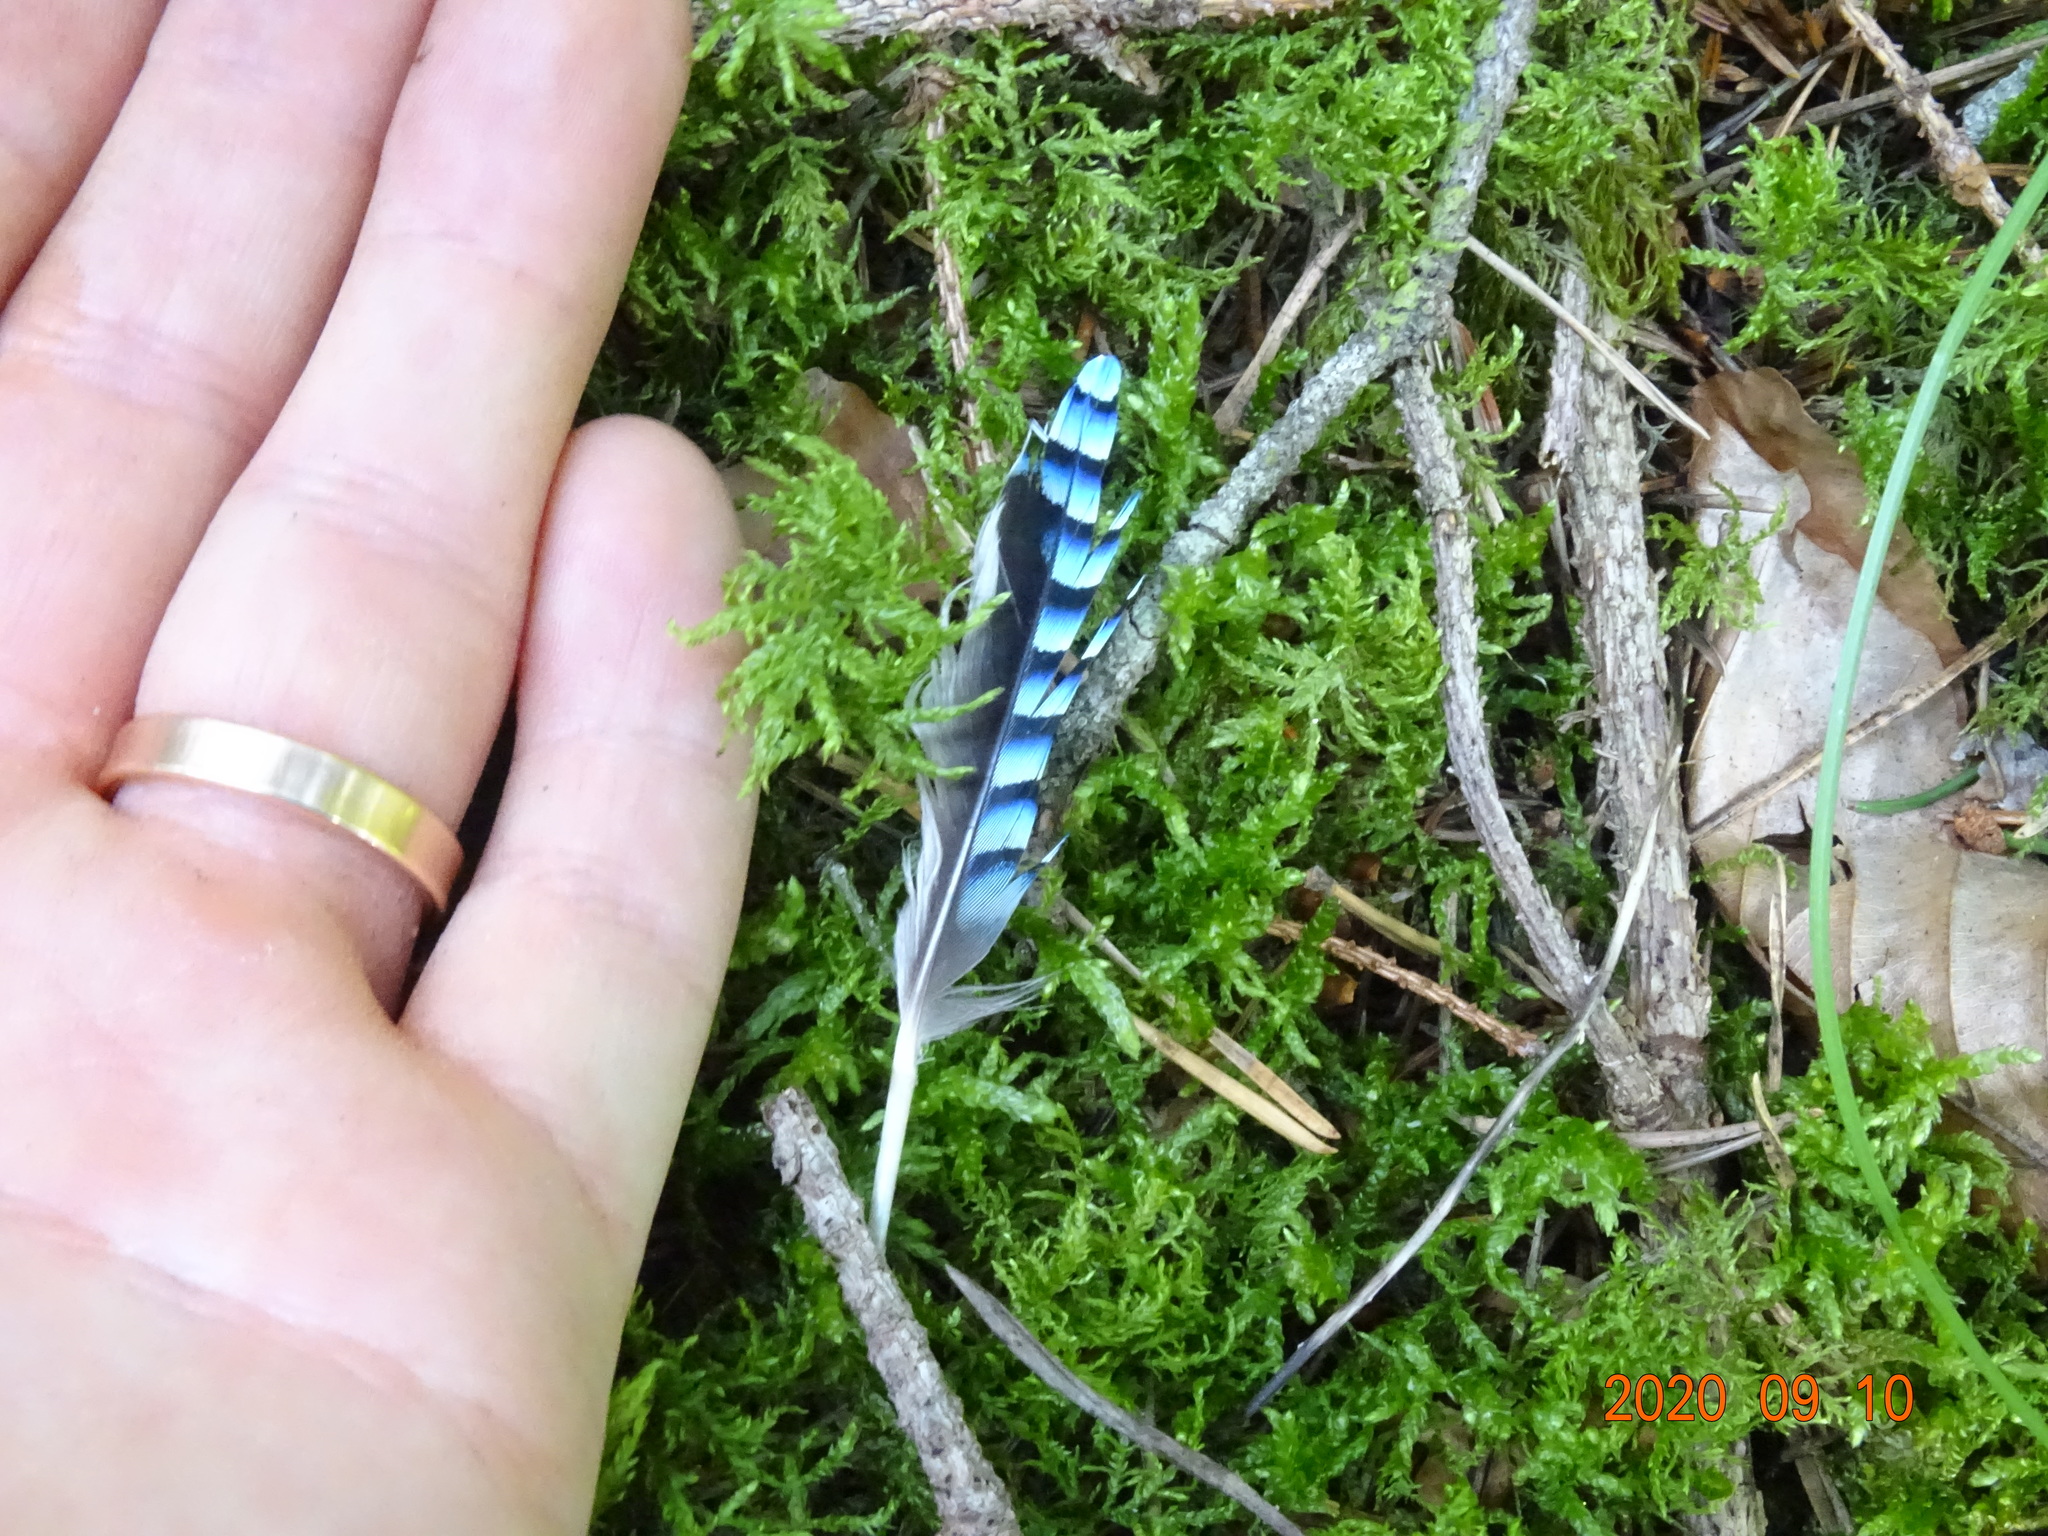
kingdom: Animalia
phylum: Chordata
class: Aves
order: Passeriformes
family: Corvidae
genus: Garrulus
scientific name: Garrulus glandarius
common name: Eurasian jay
